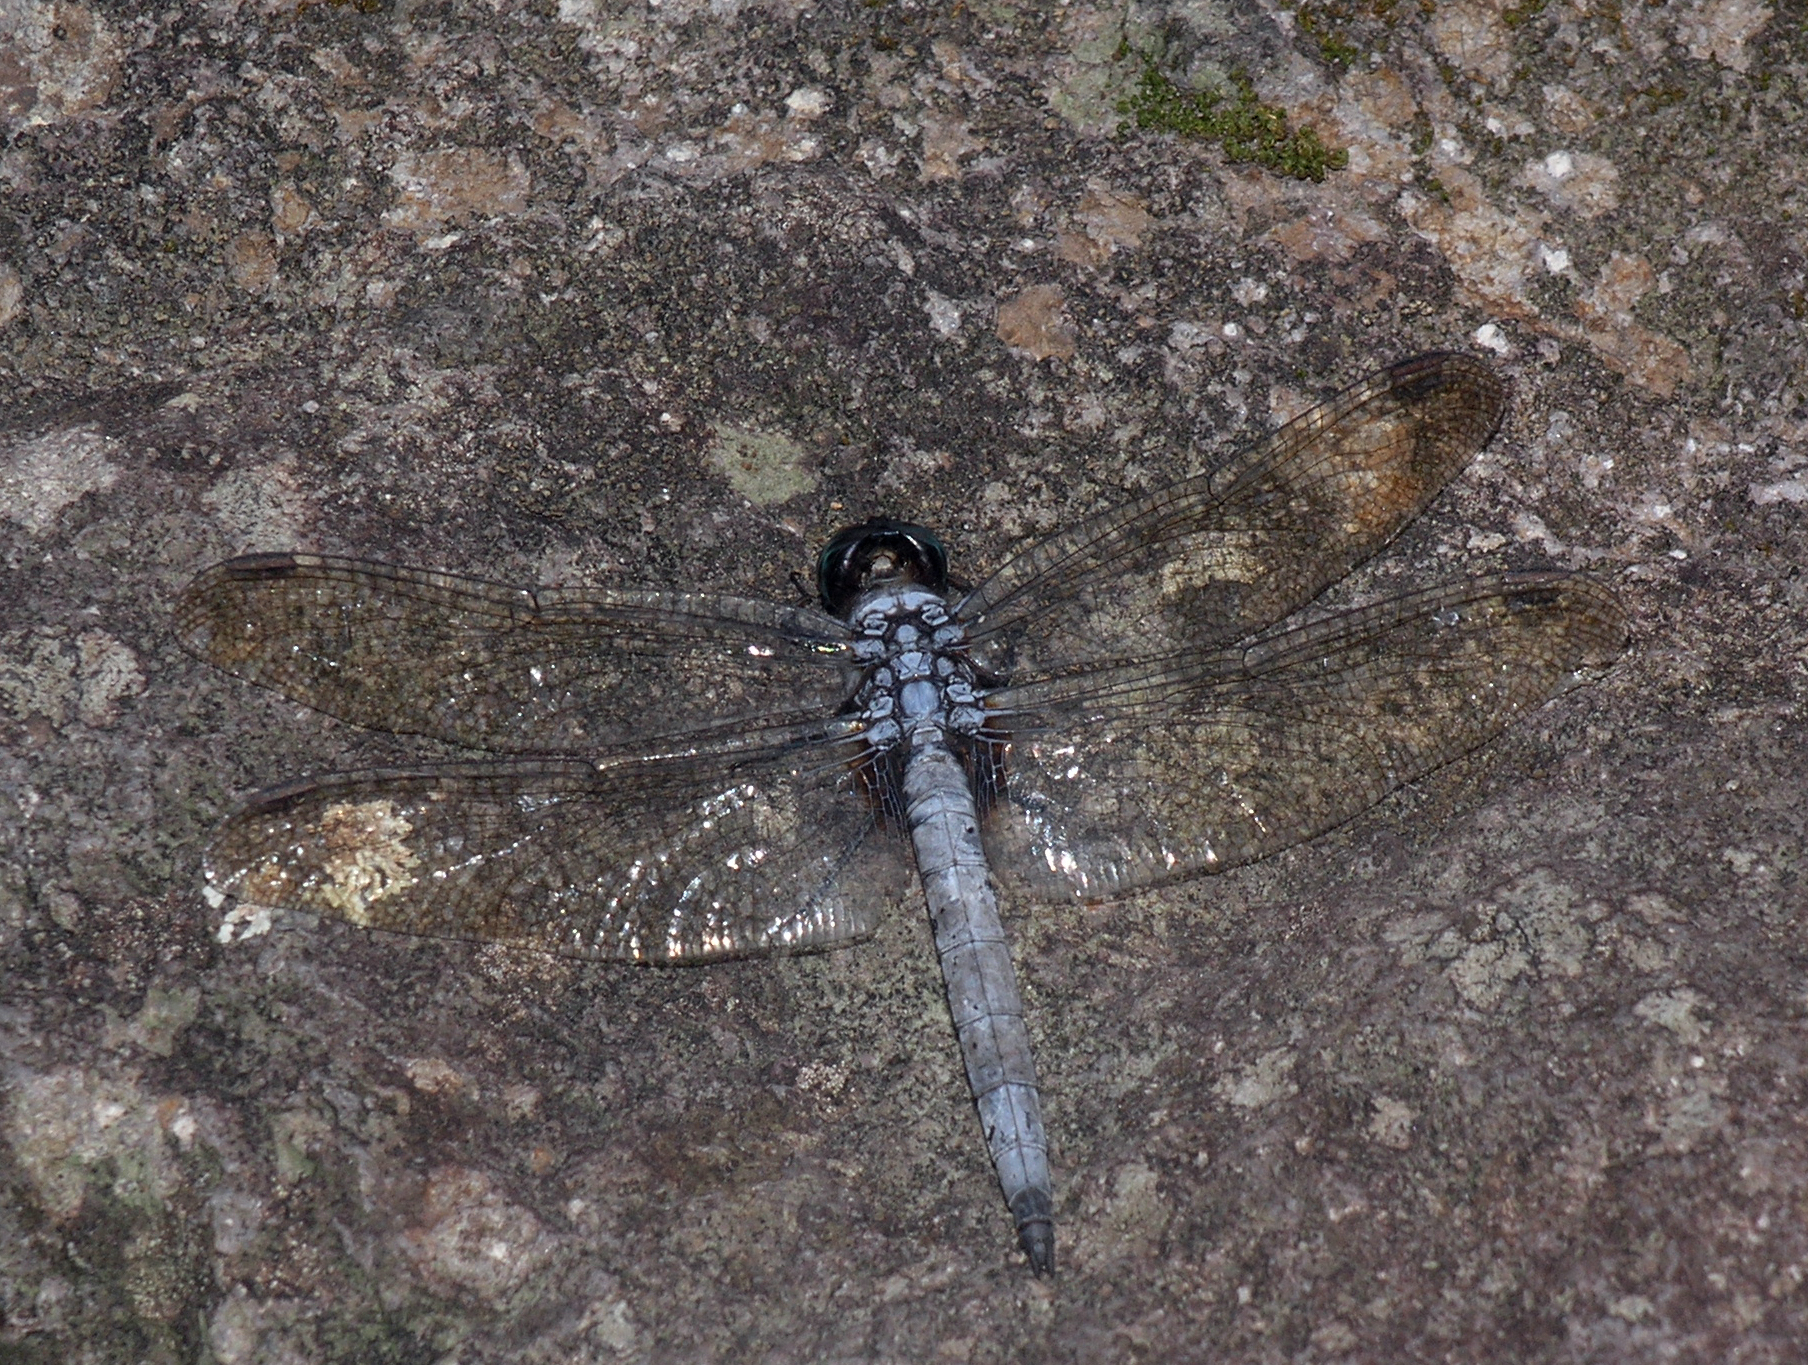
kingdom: Animalia
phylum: Arthropoda
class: Insecta
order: Odonata
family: Libellulidae
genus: Orthetrum
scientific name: Orthetrum glaucum
